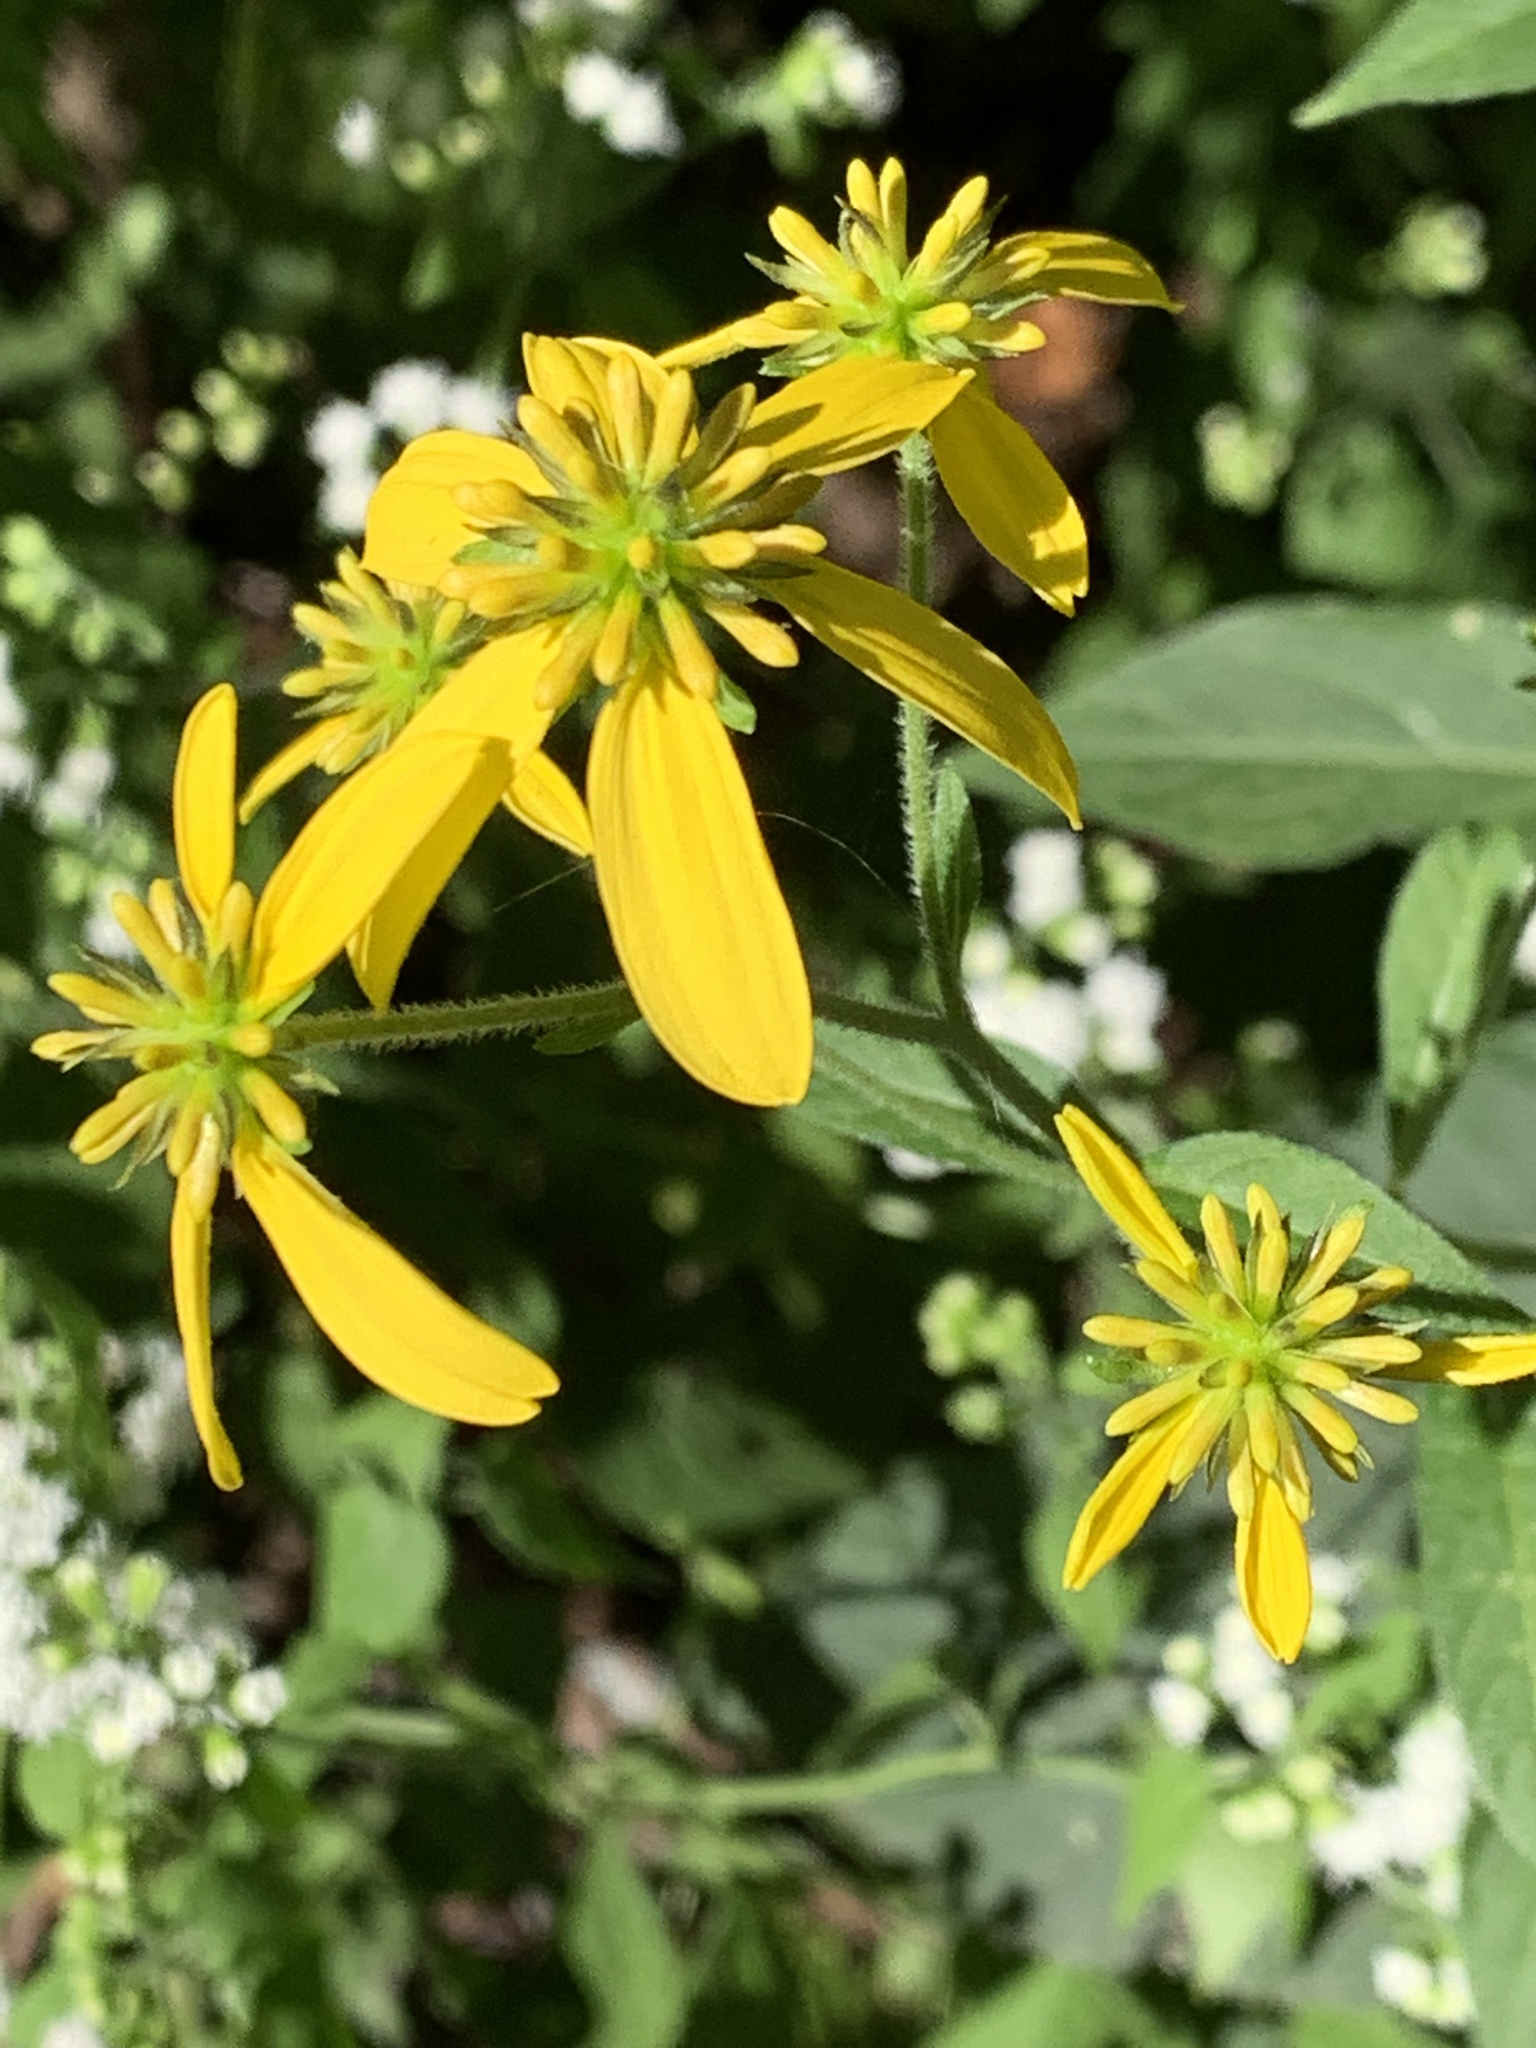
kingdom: Plantae
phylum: Tracheophyta
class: Magnoliopsida
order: Asterales
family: Asteraceae
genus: Verbesina
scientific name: Verbesina alternifolia
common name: Wingstem
